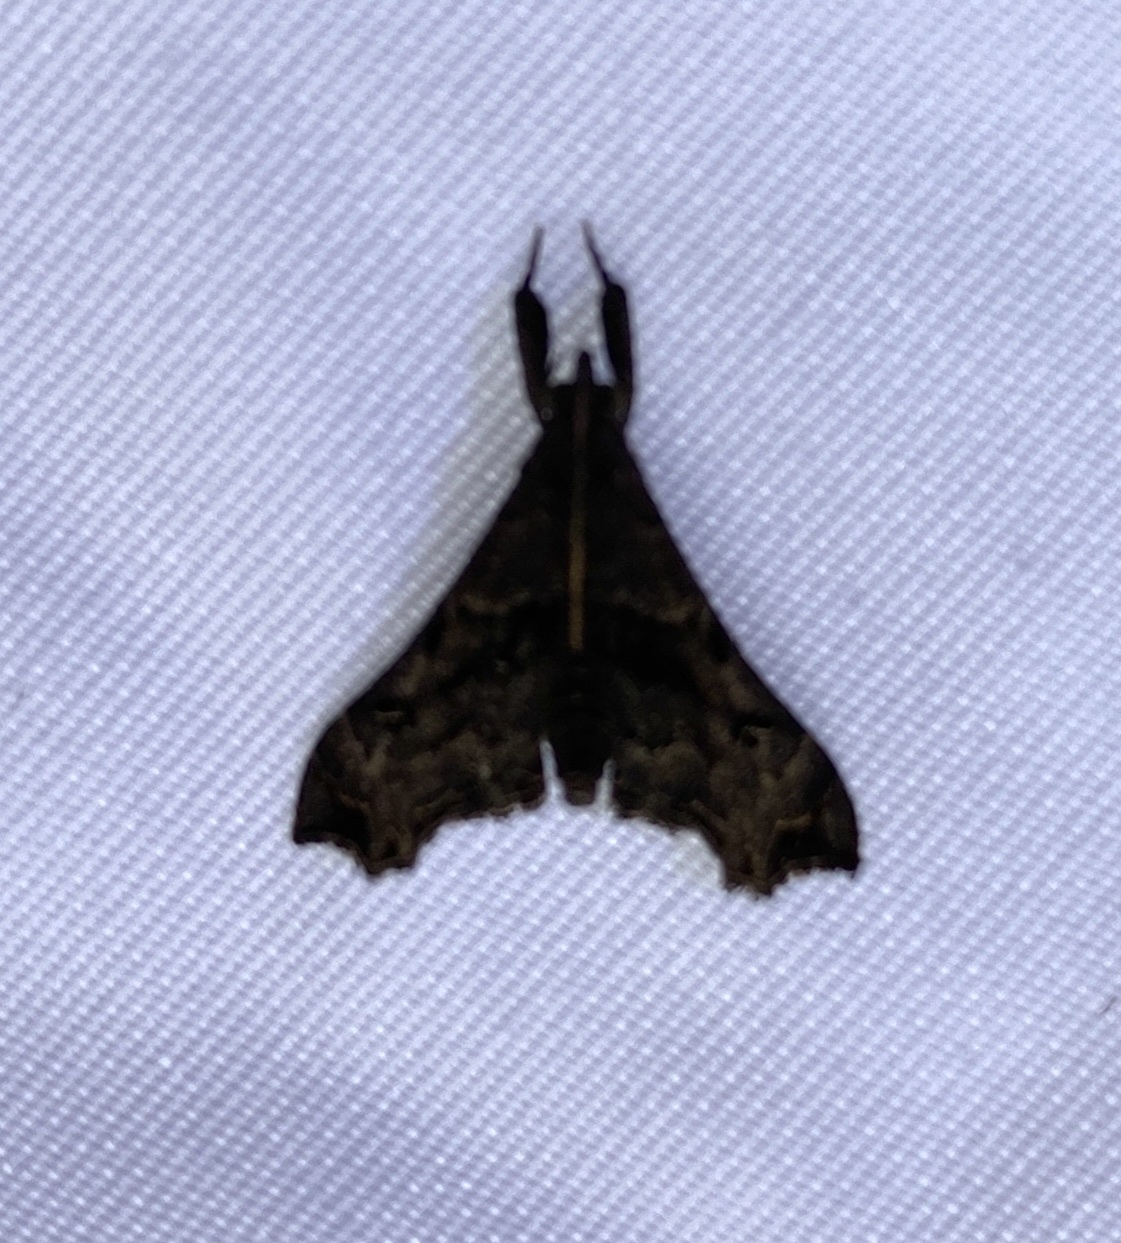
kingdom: Animalia
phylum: Arthropoda
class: Insecta
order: Lepidoptera
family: Erebidae
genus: Palthis
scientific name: Palthis asopialis
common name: Faint-spotted palthis moth
